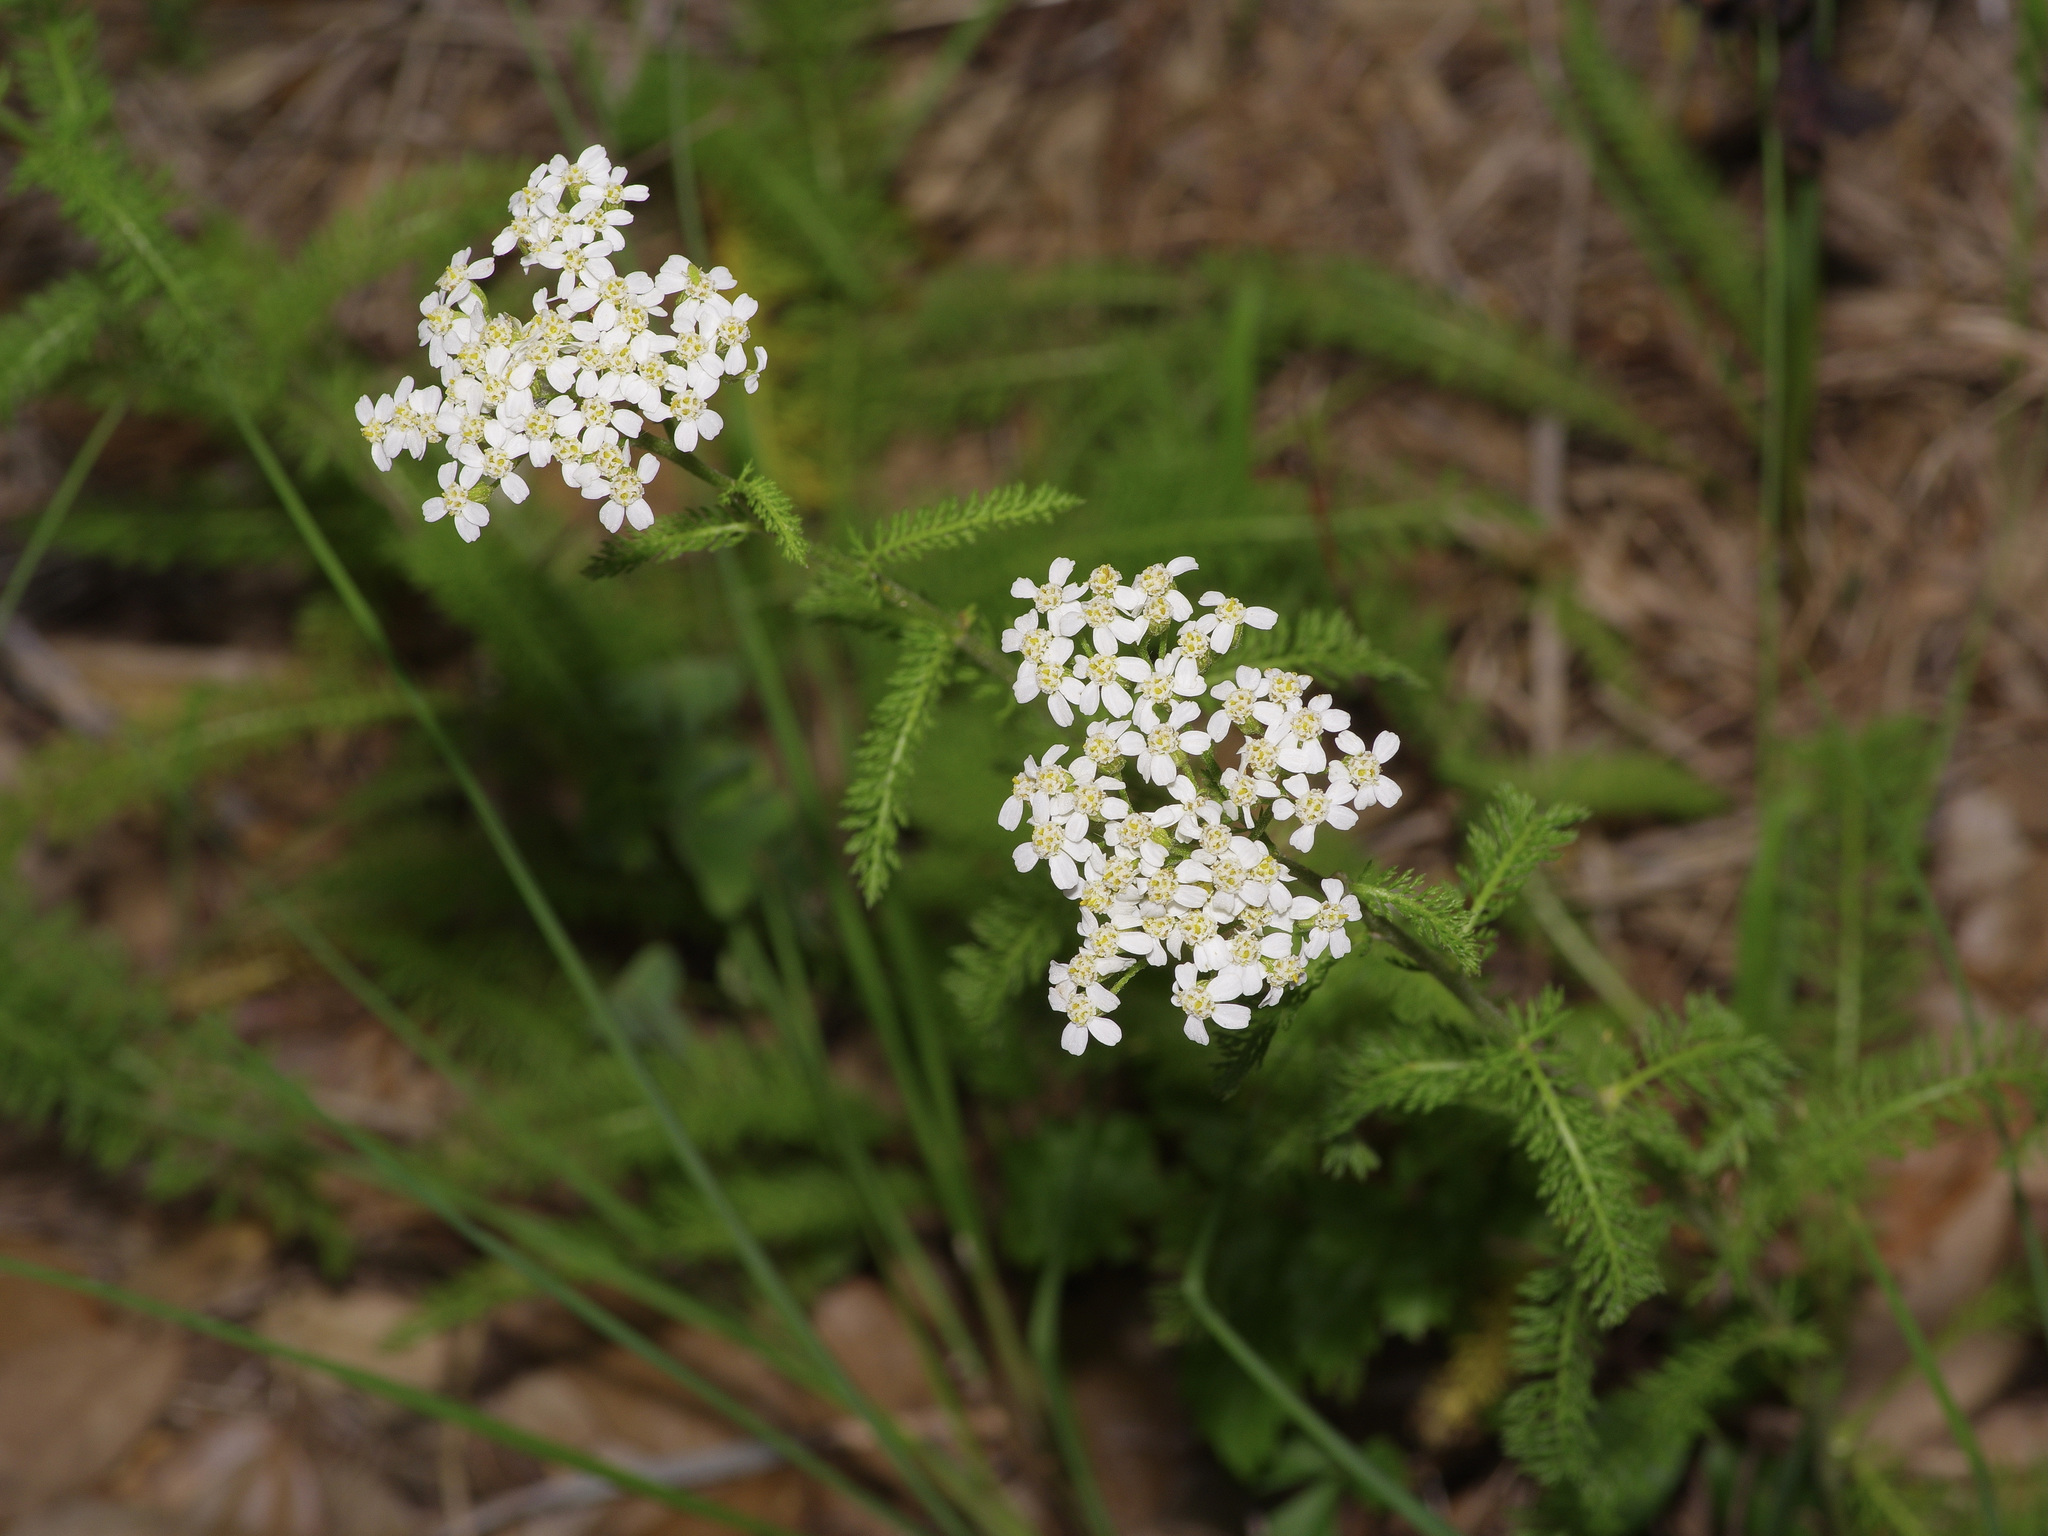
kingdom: Plantae
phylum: Tracheophyta
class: Magnoliopsida
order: Asterales
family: Asteraceae
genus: Achillea
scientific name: Achillea millefolium
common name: Yarrow
